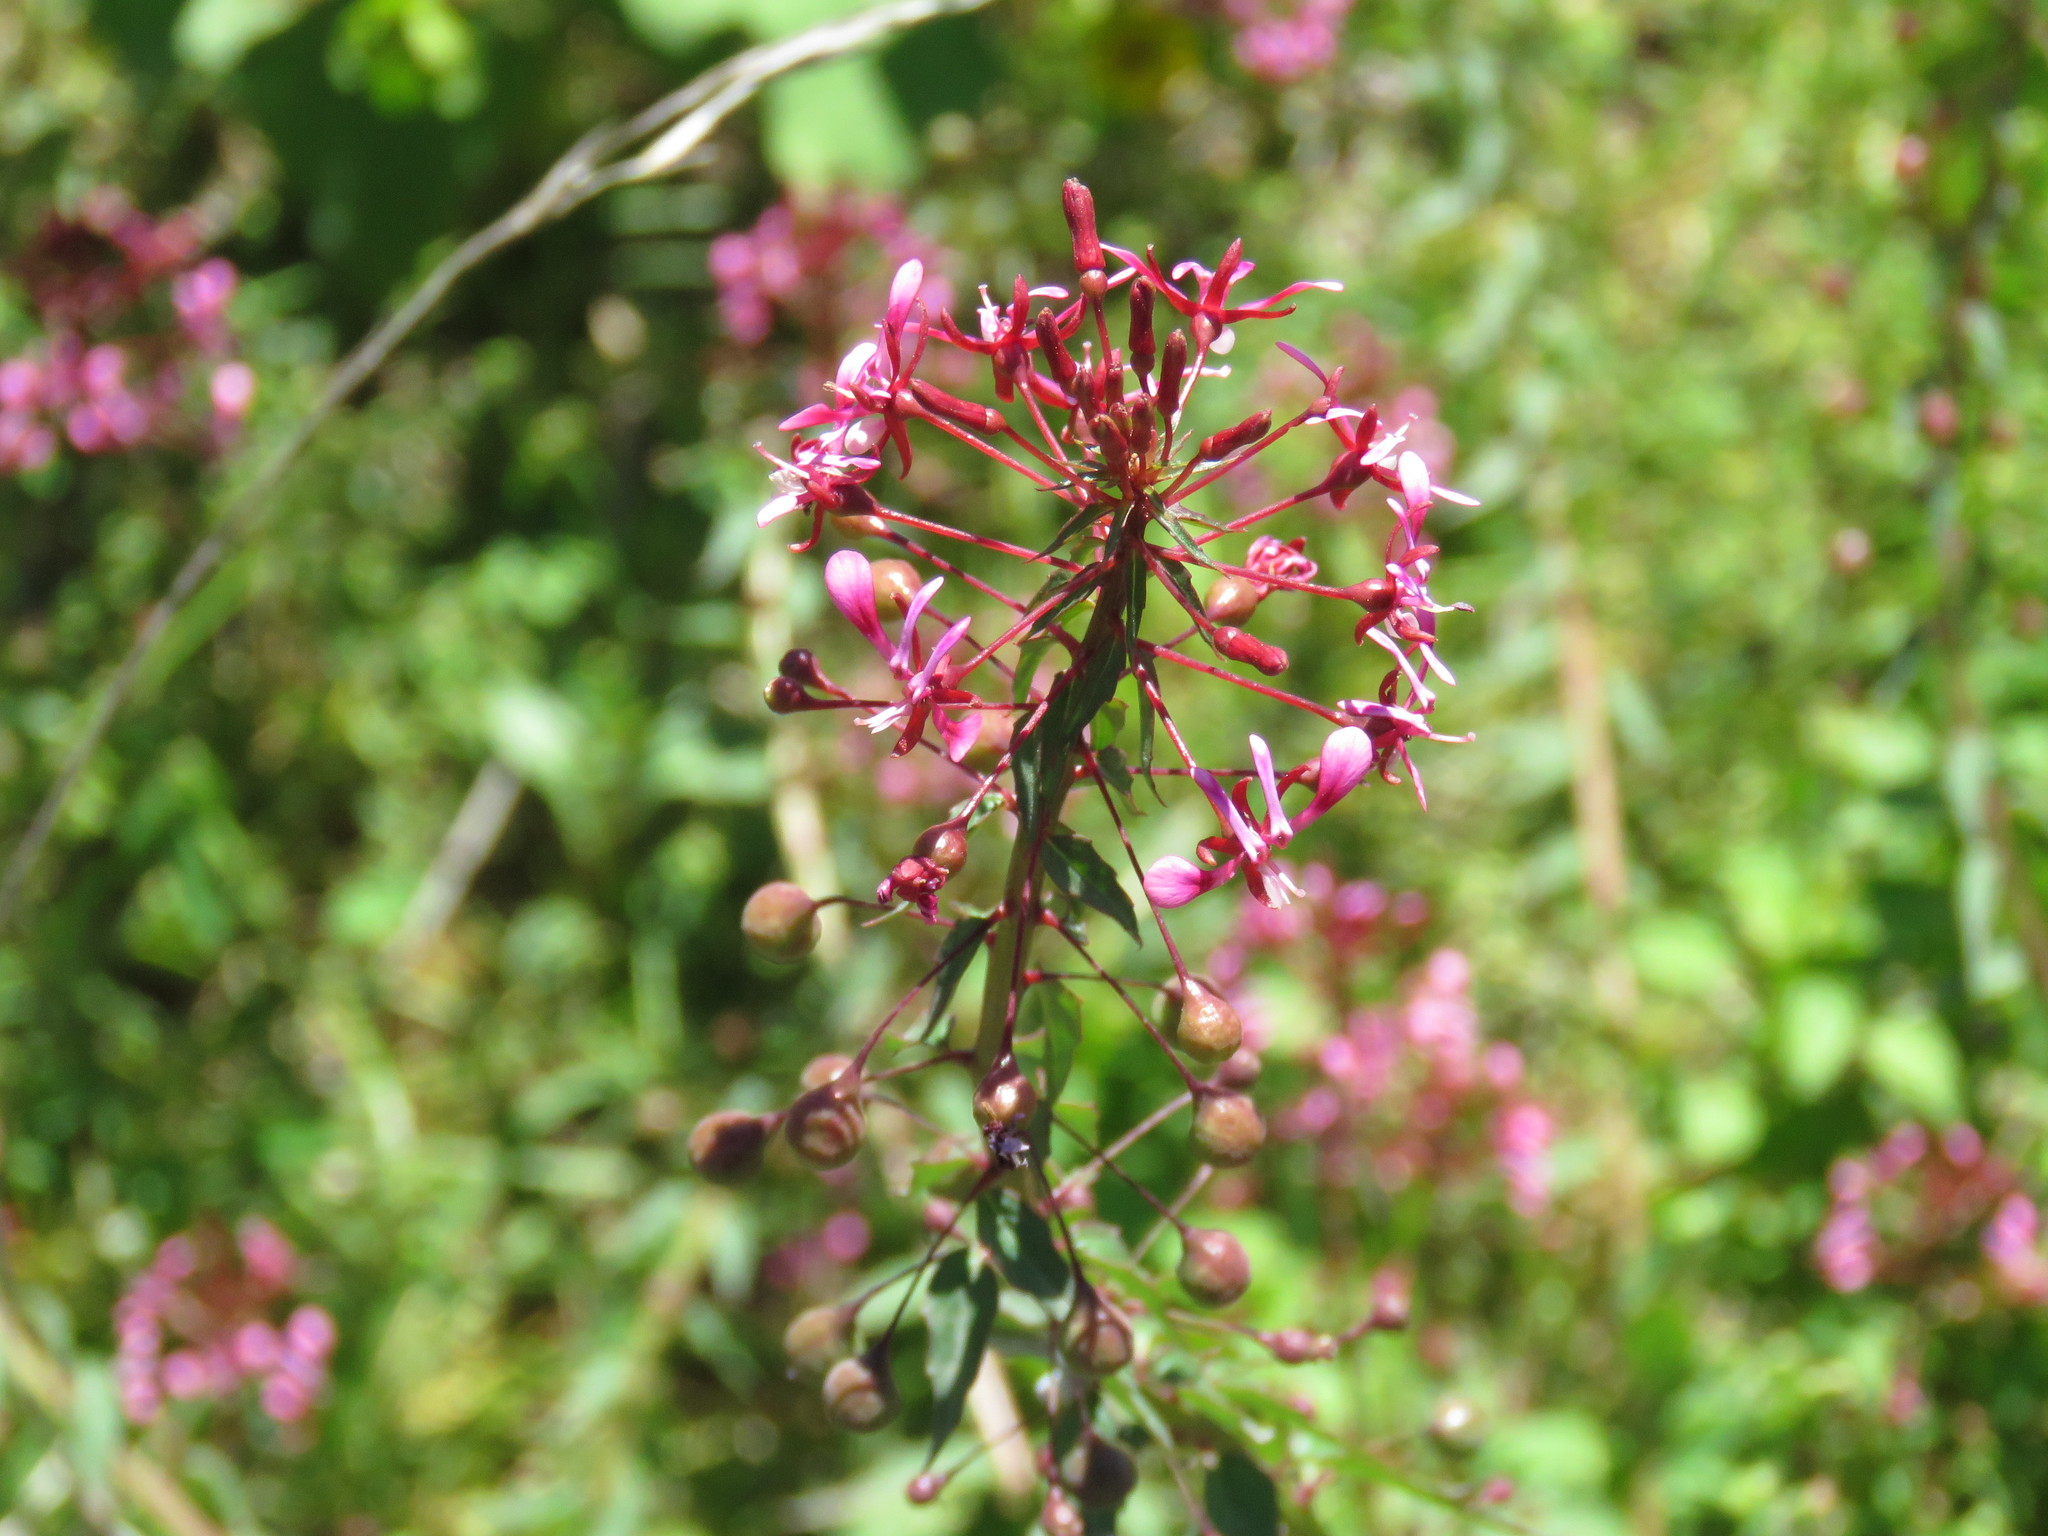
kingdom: Plantae
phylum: Tracheophyta
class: Magnoliopsida
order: Myrtales
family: Onagraceae
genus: Lopezia
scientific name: Lopezia racemosa
